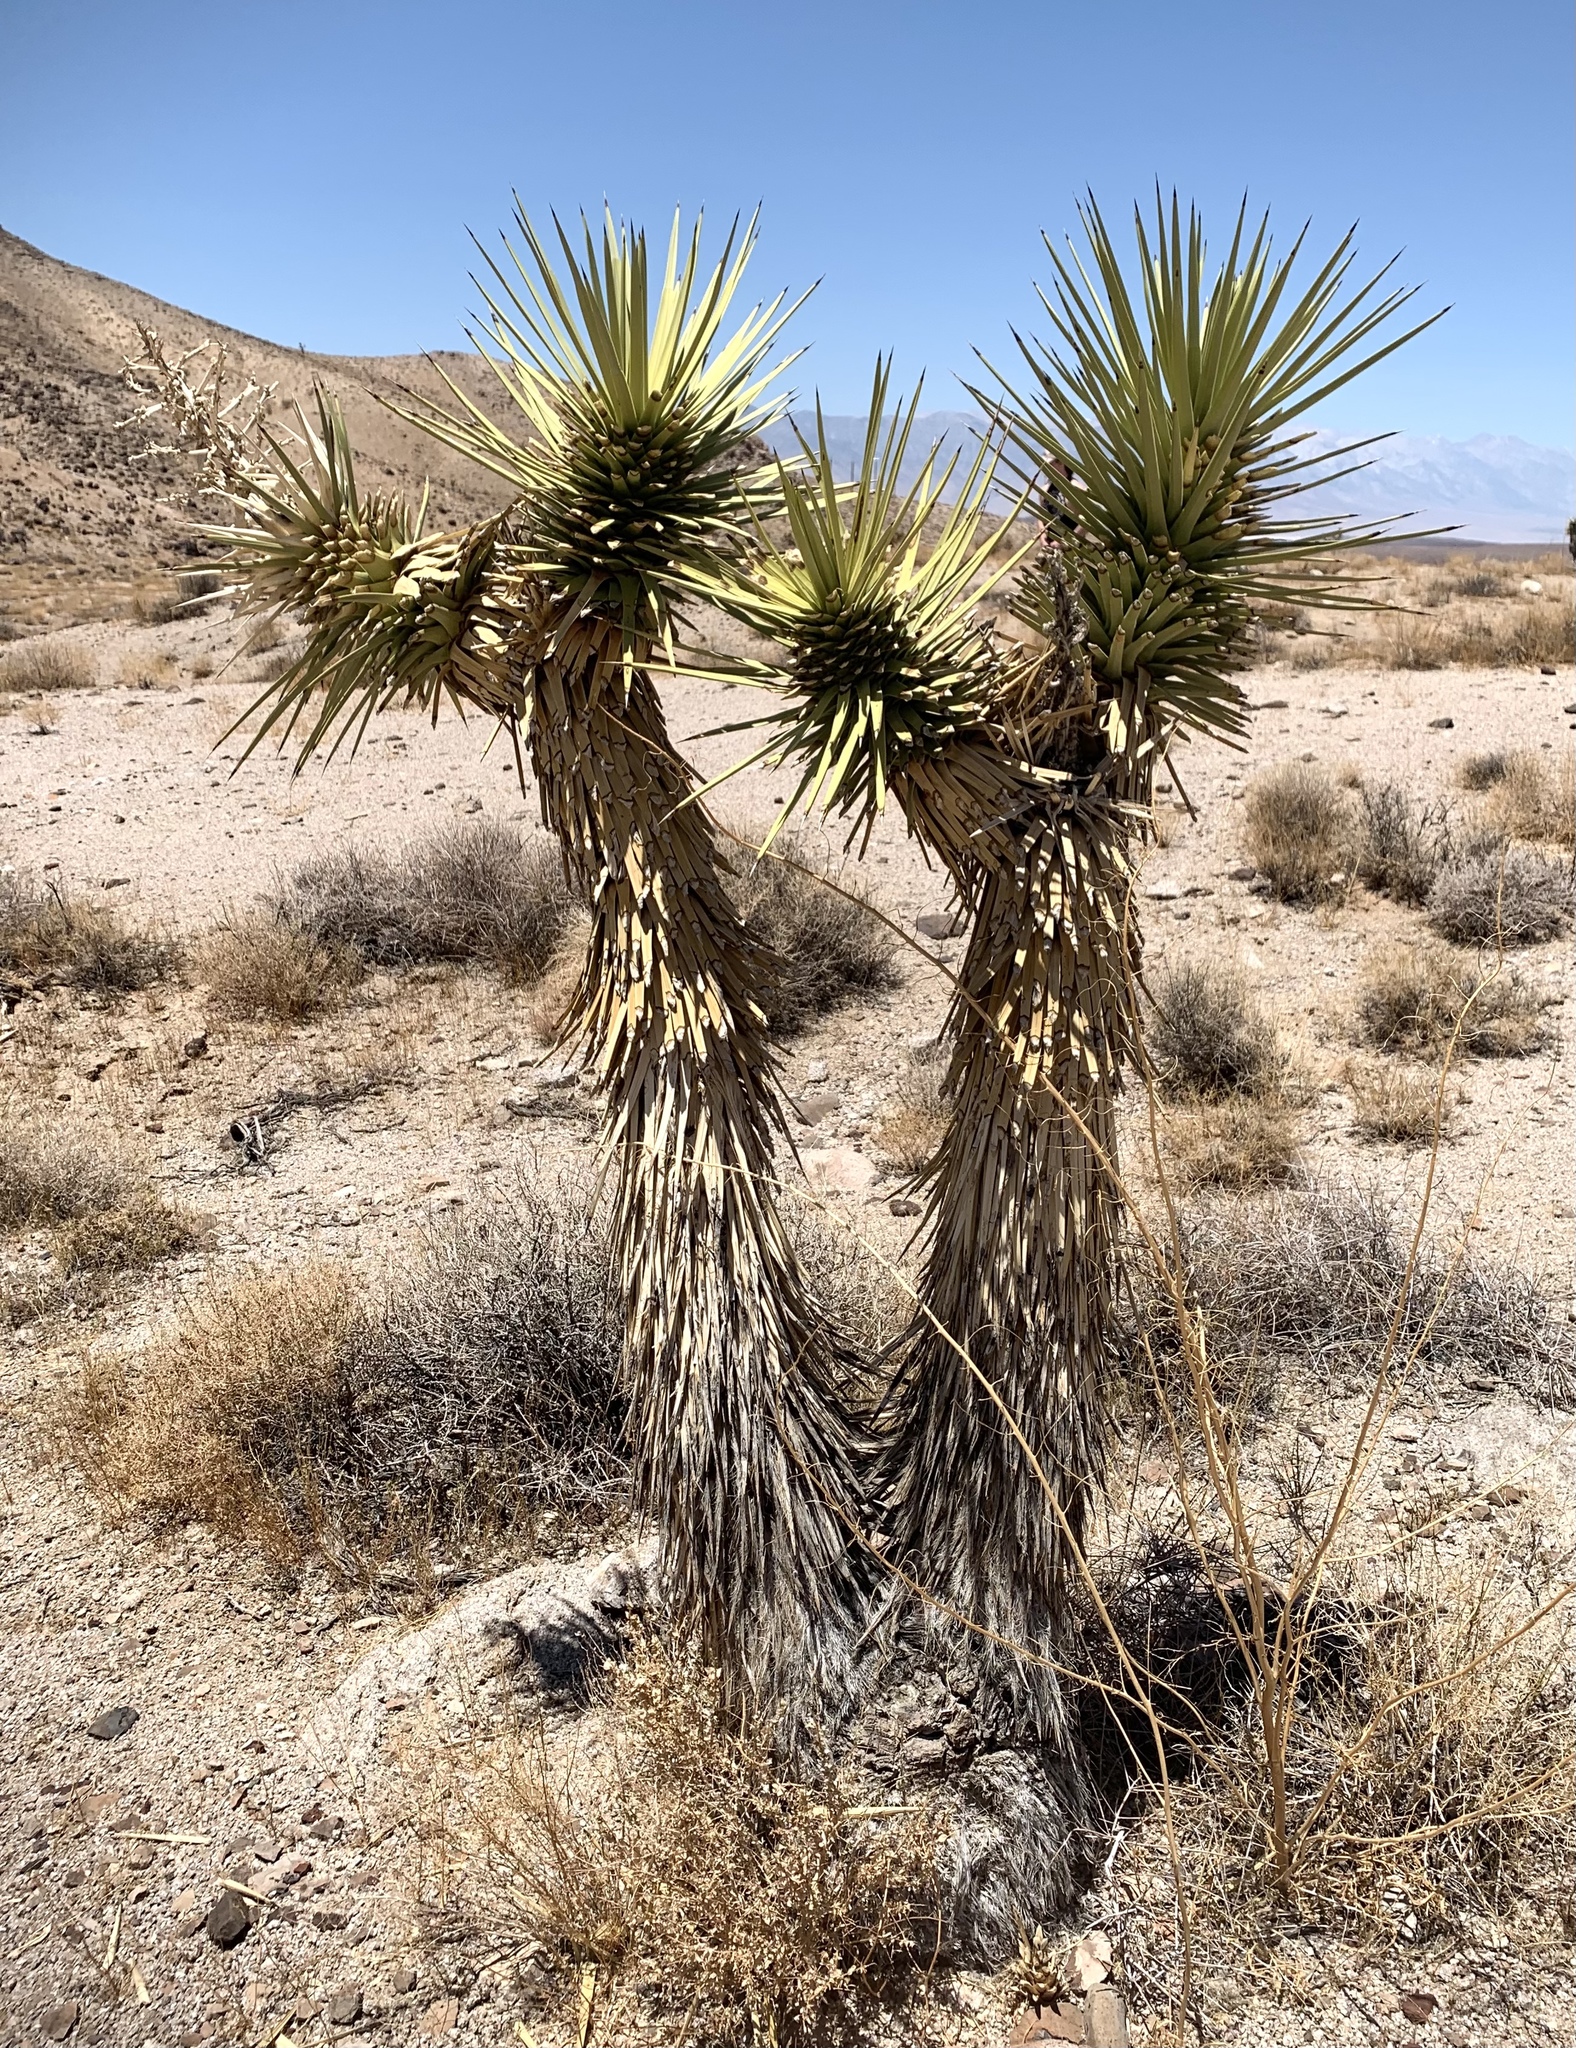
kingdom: Plantae
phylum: Tracheophyta
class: Liliopsida
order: Asparagales
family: Asparagaceae
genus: Yucca
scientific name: Yucca brevifolia
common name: Joshua tree
